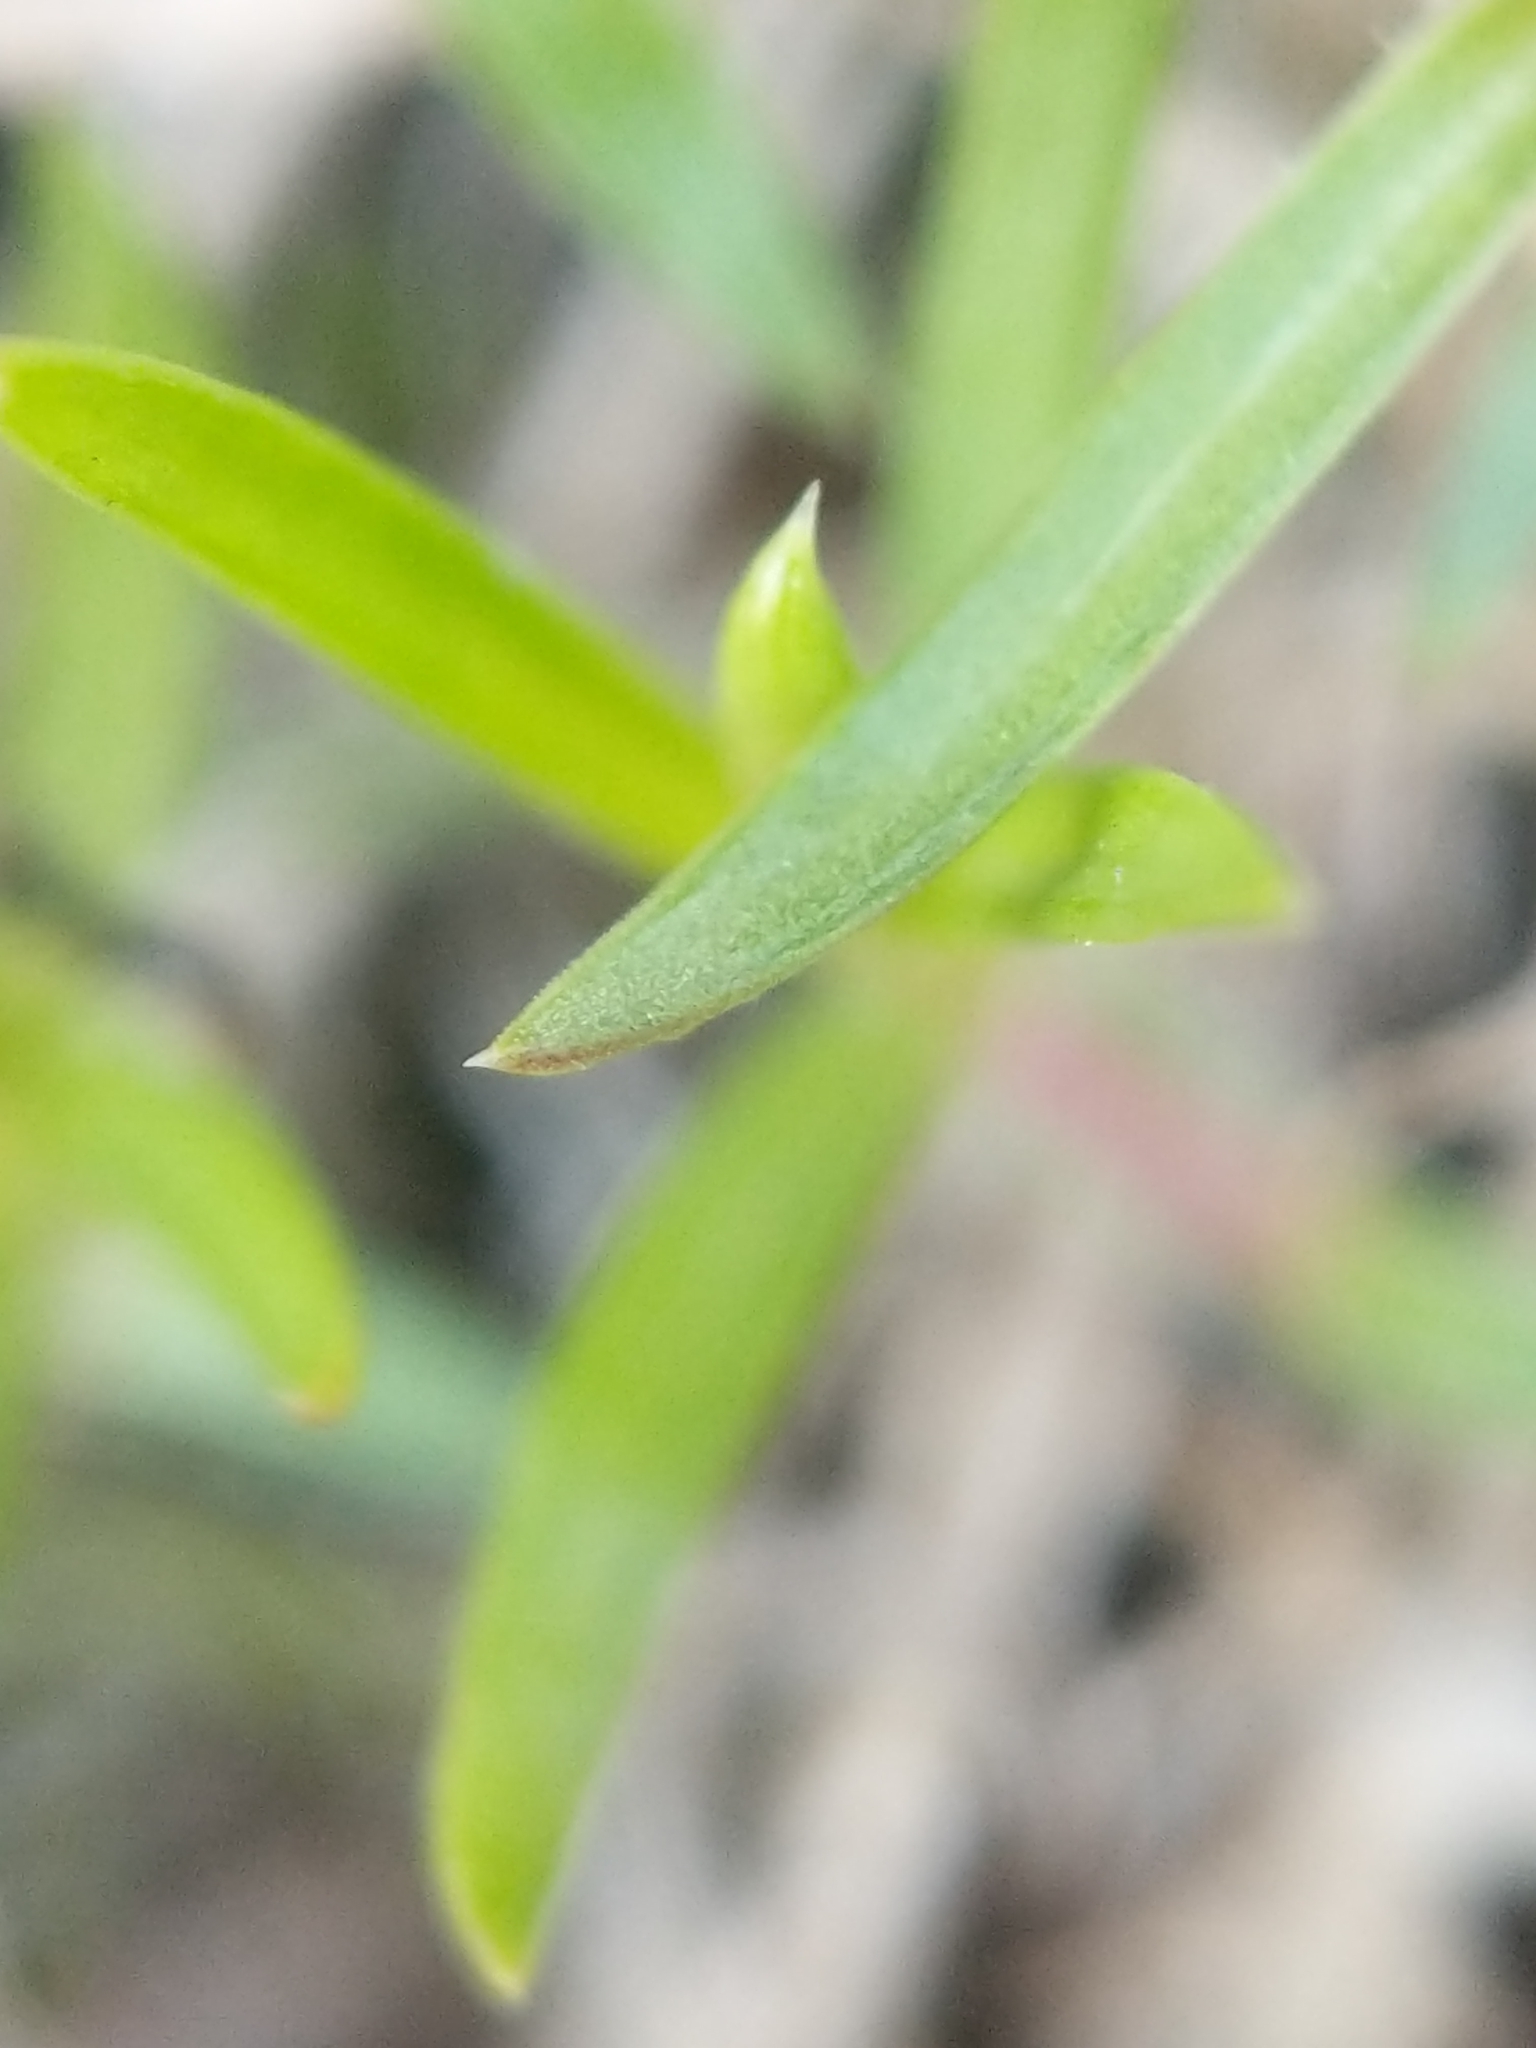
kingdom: Plantae
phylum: Tracheophyta
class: Magnoliopsida
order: Ericales
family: Polemoniaceae
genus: Phlox
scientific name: Phlox subulata
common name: Moss phlox
